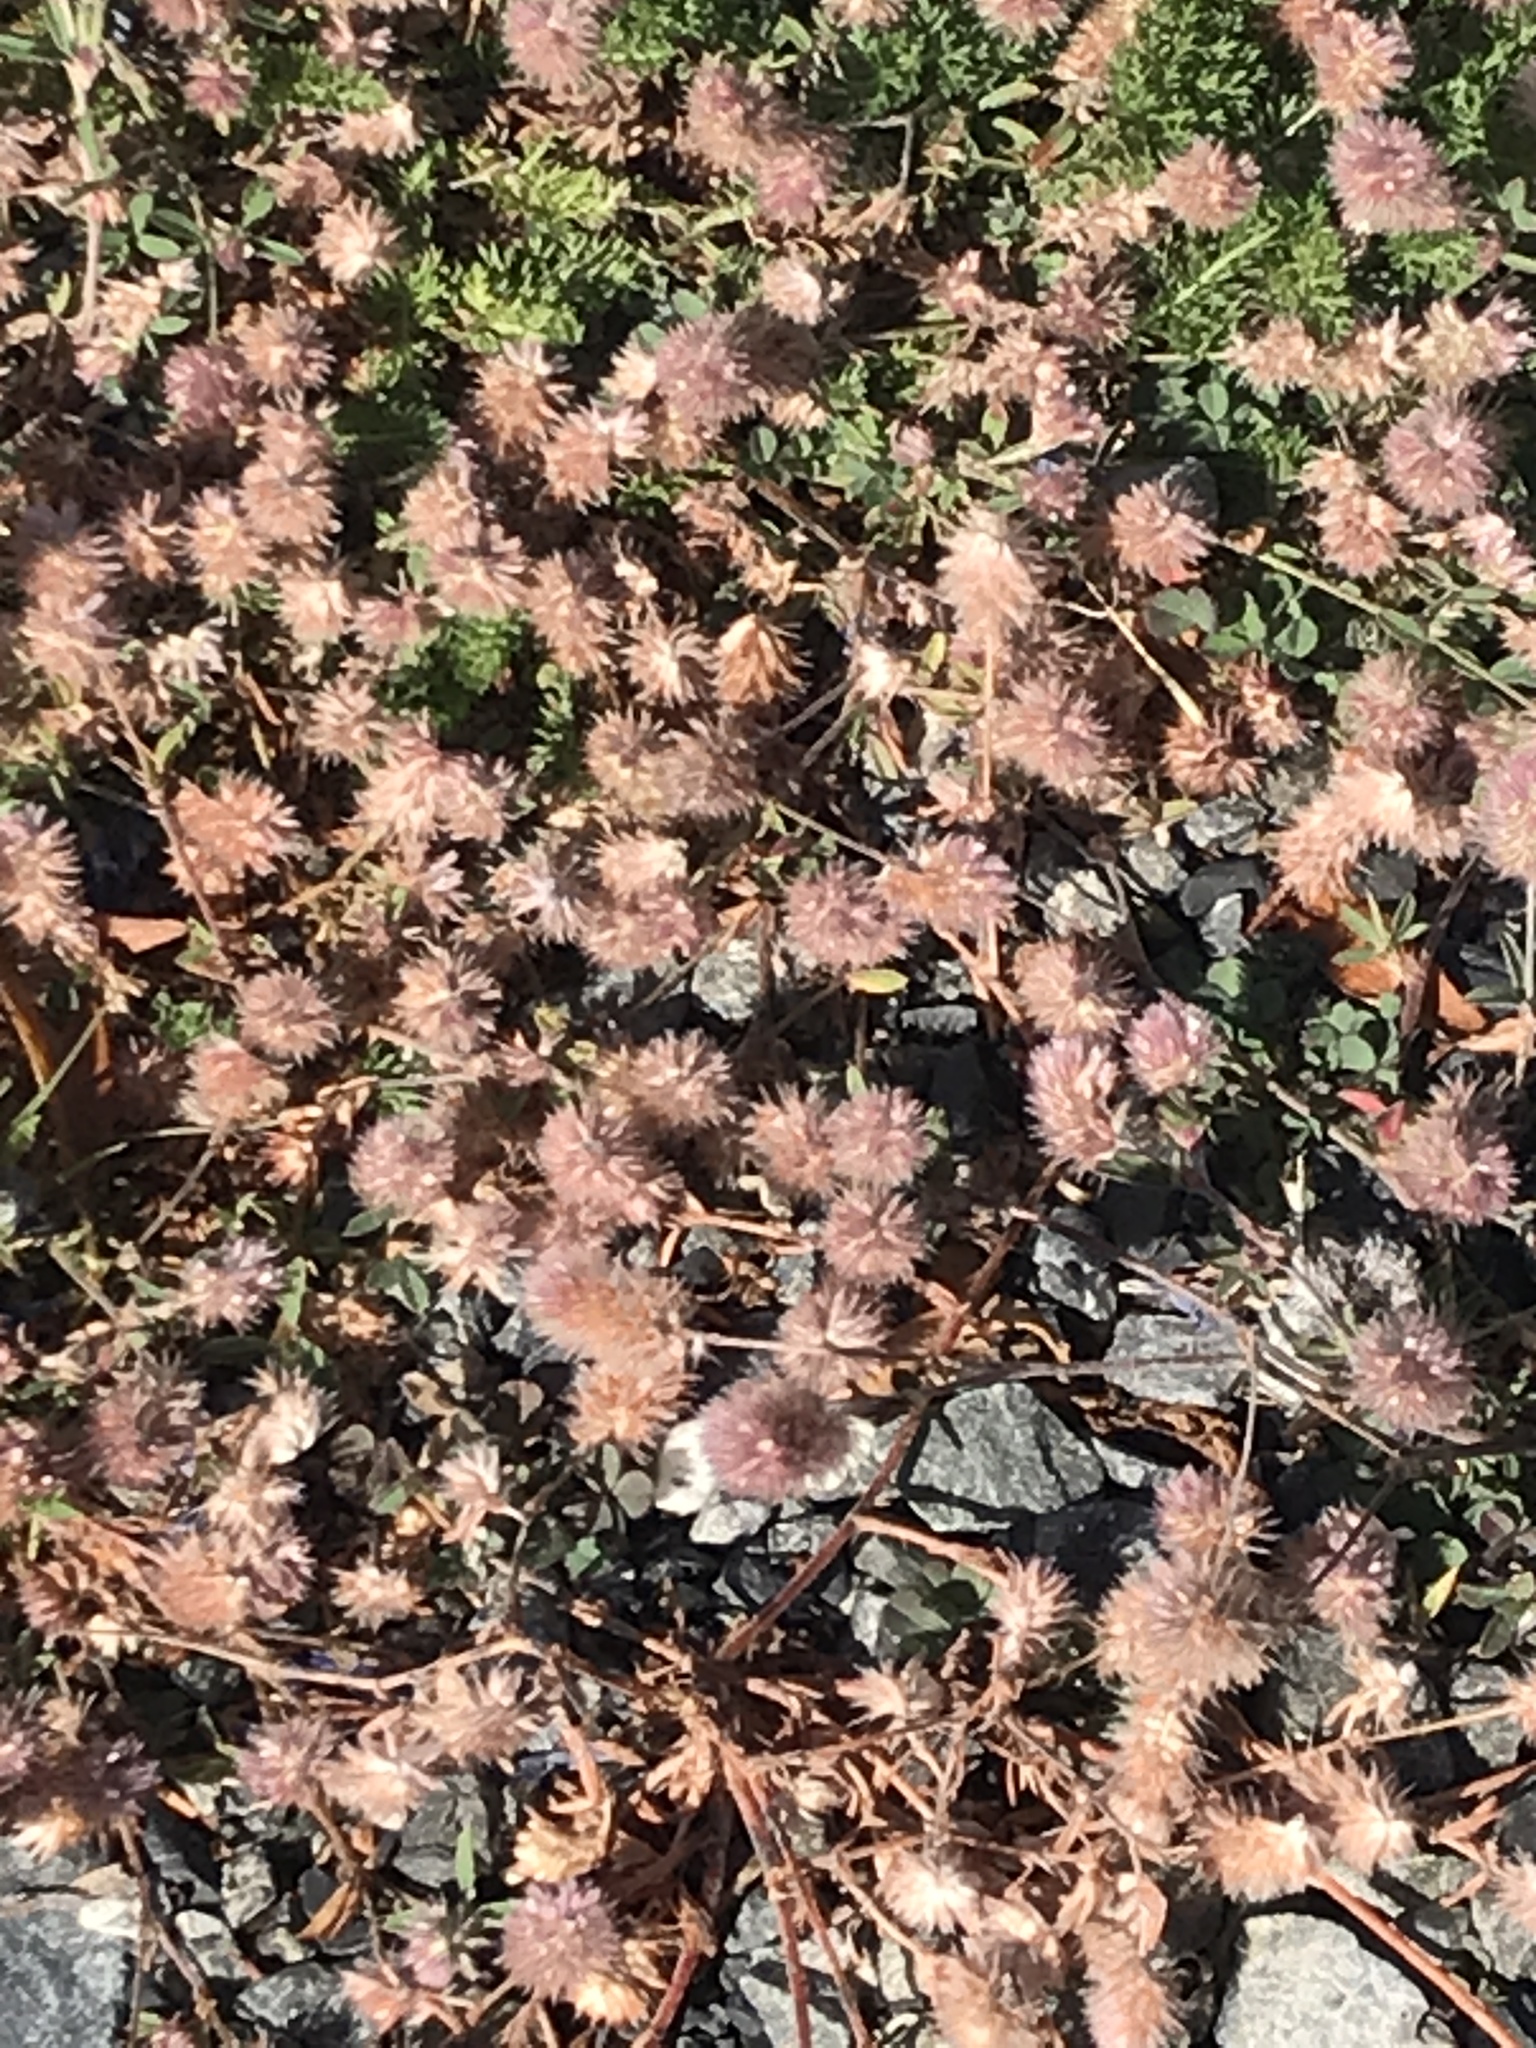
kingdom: Plantae
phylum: Tracheophyta
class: Magnoliopsida
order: Fabales
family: Fabaceae
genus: Trifolium
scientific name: Trifolium arvense
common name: Hare's-foot clover
